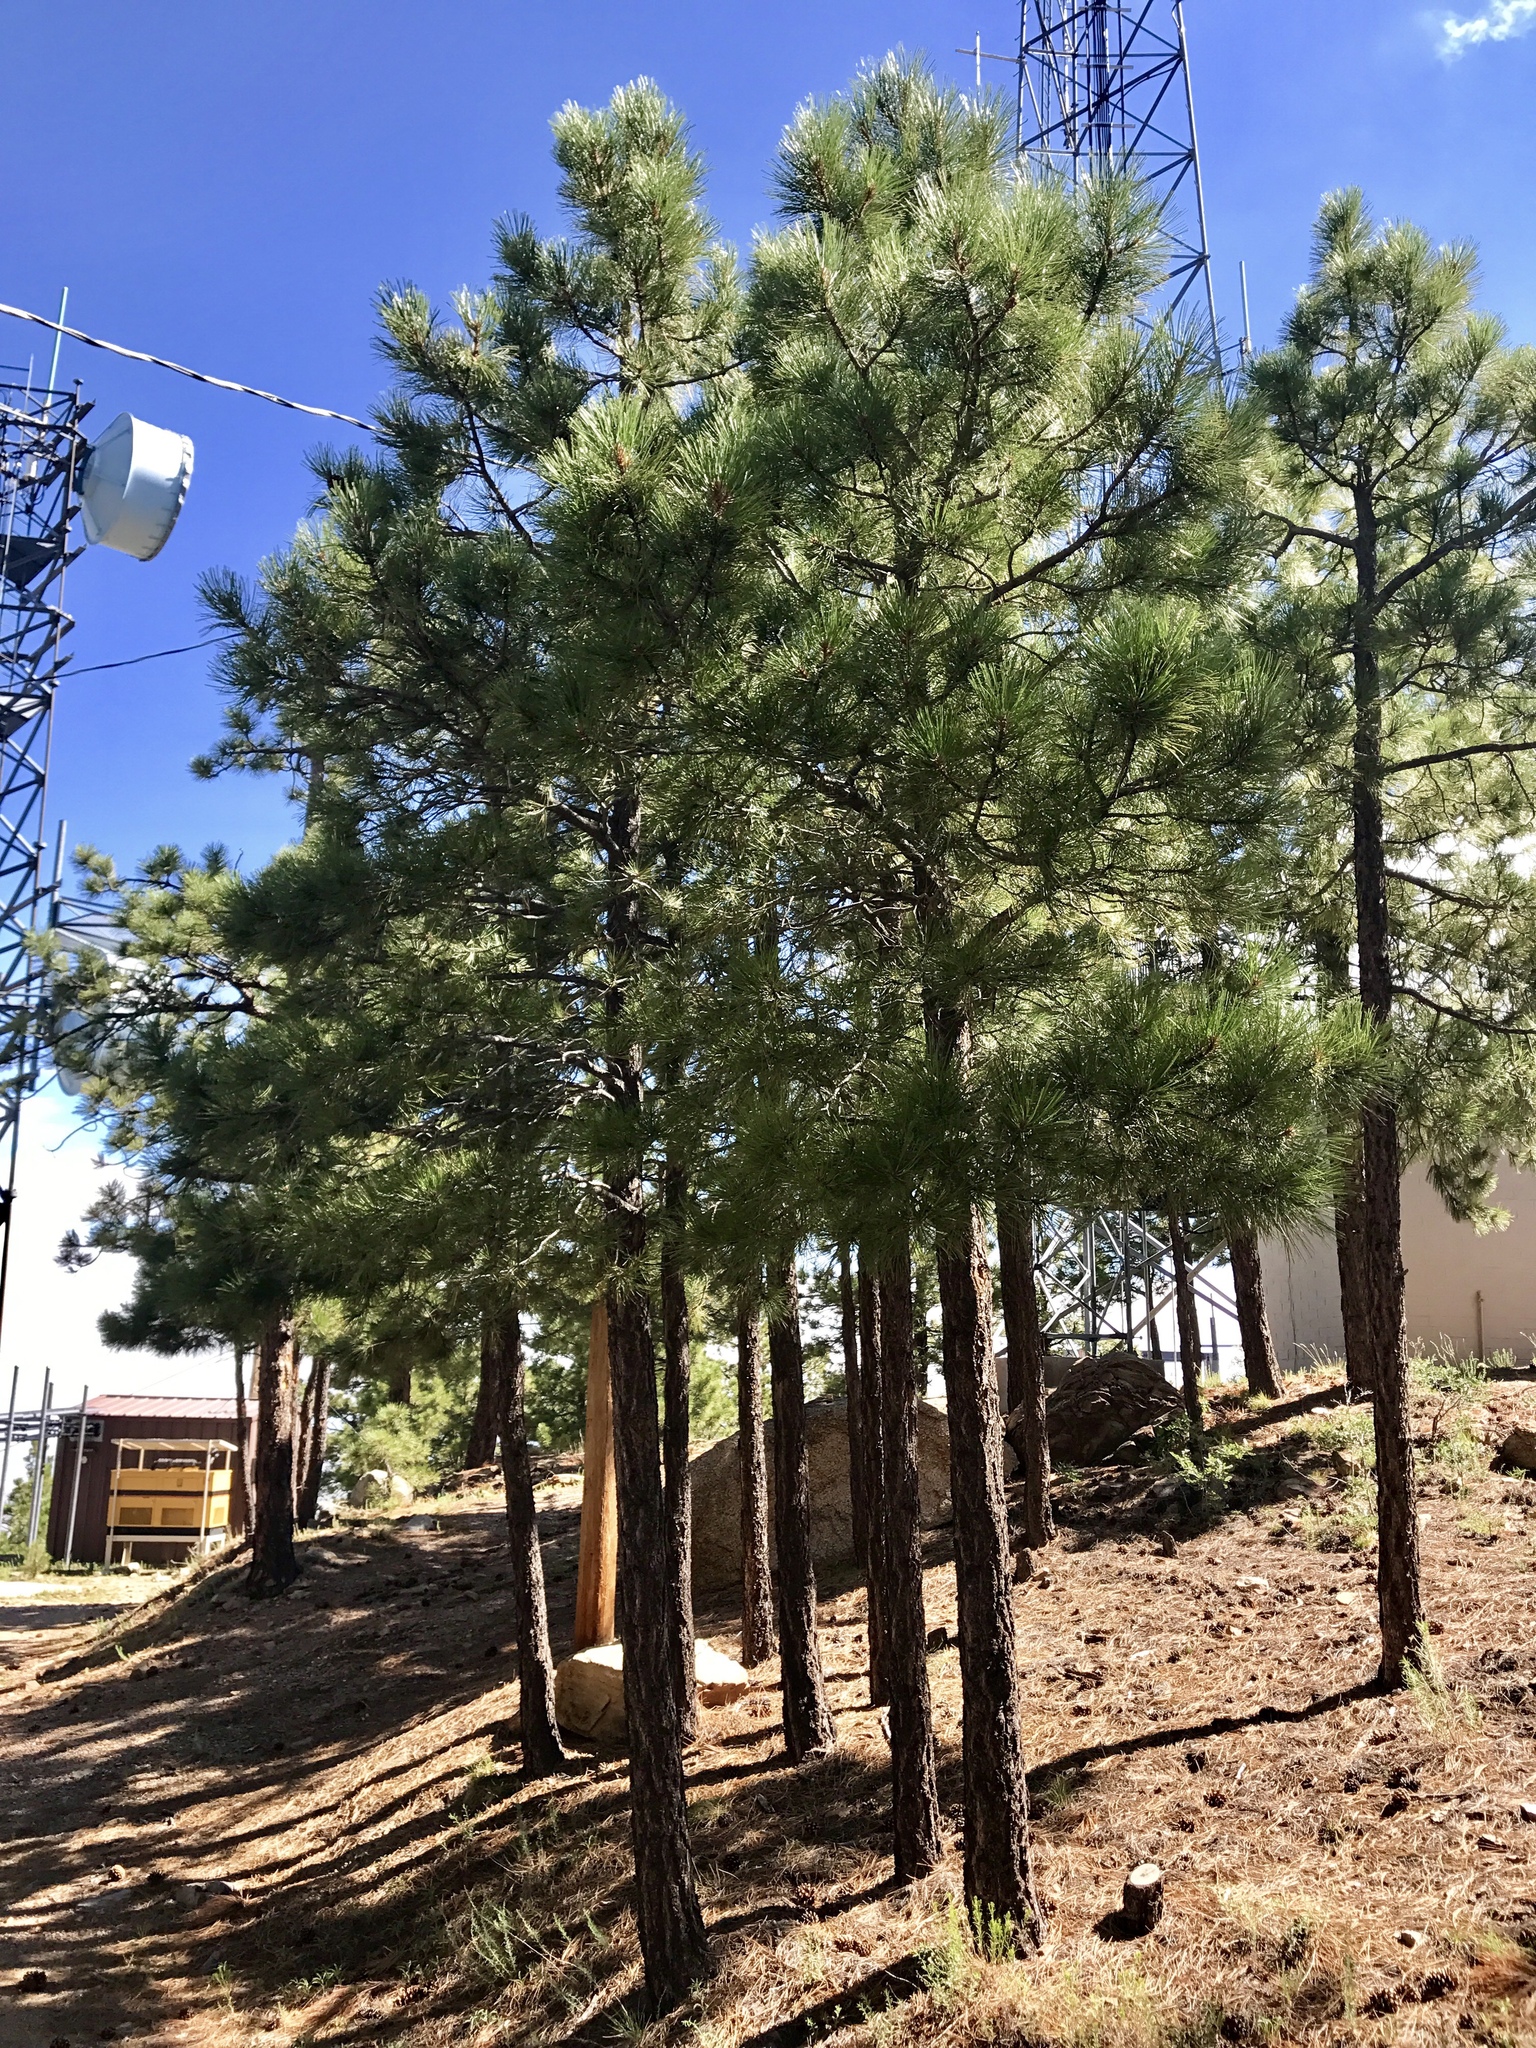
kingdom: Plantae
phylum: Tracheophyta
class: Pinopsida
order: Pinales
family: Pinaceae
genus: Pinus
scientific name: Pinus ponderosa
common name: Western yellow-pine
